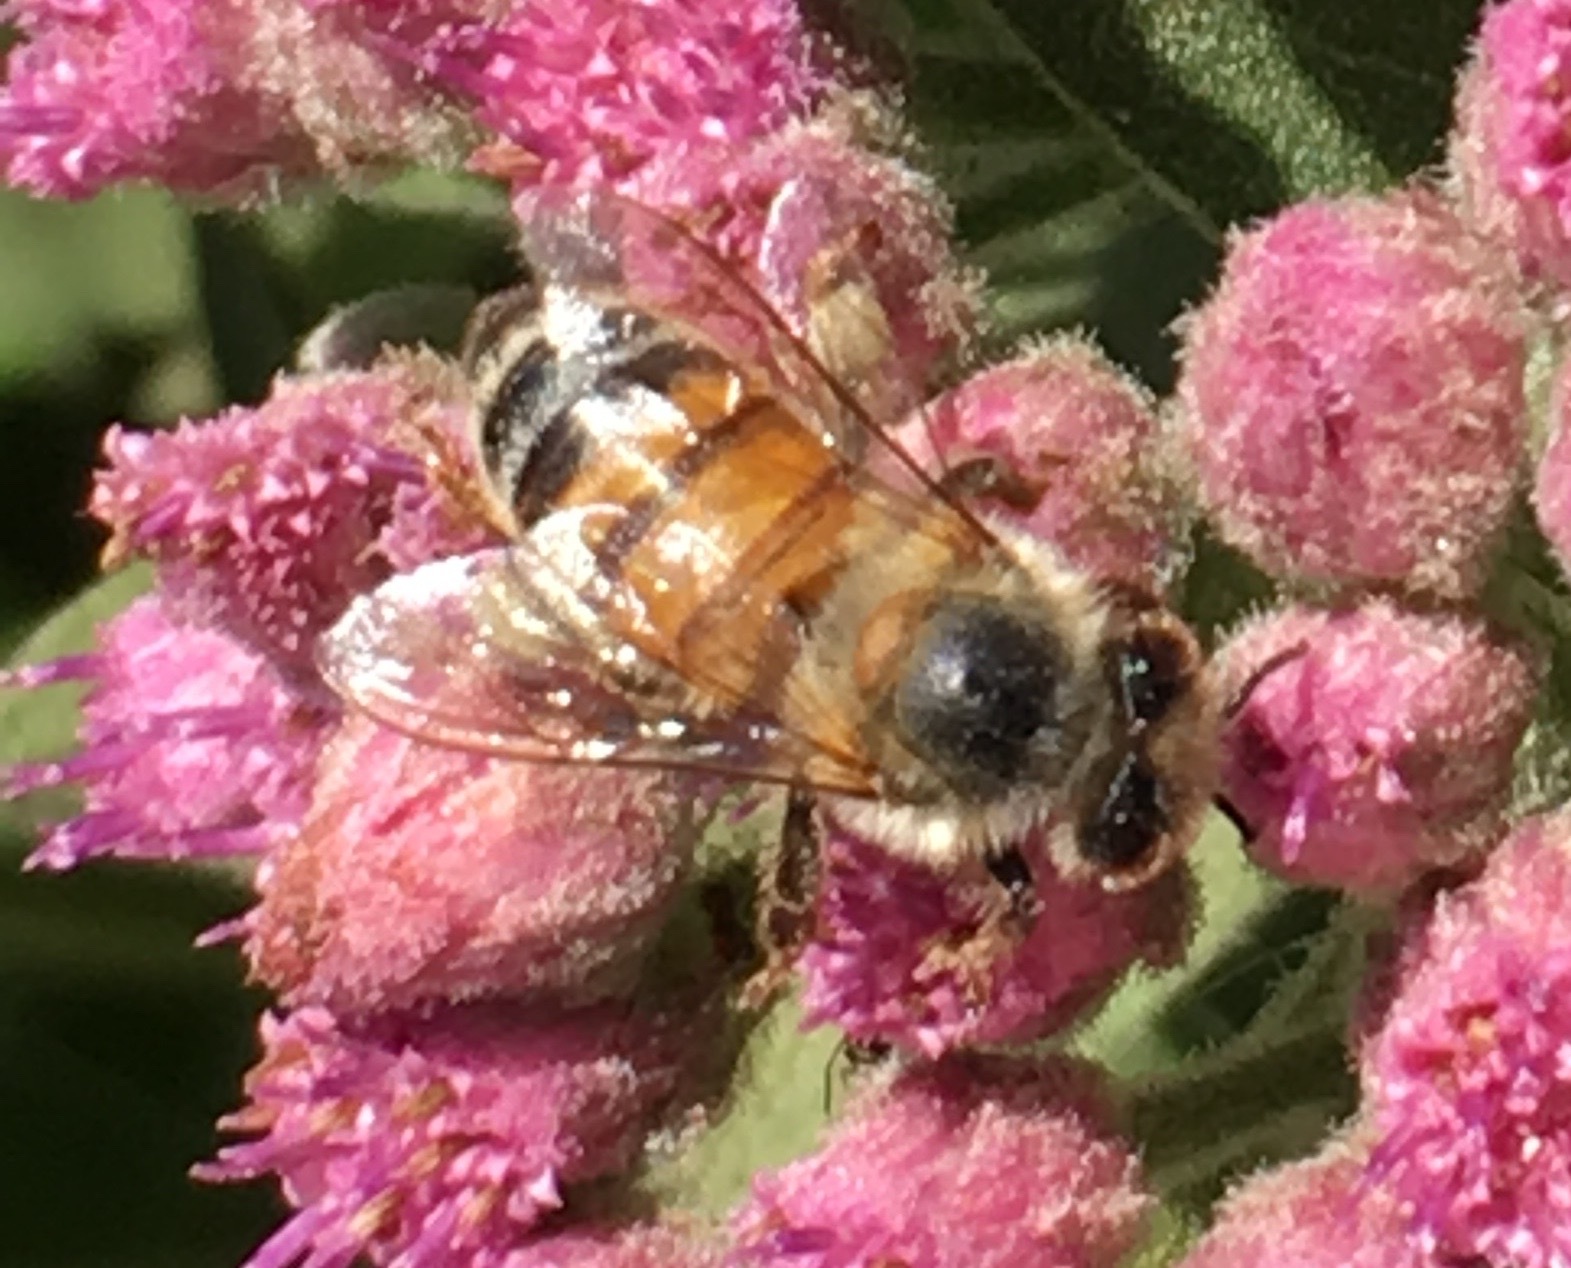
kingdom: Animalia
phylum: Arthropoda
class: Insecta
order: Hymenoptera
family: Apidae
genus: Apis
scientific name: Apis mellifera
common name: Honey bee
